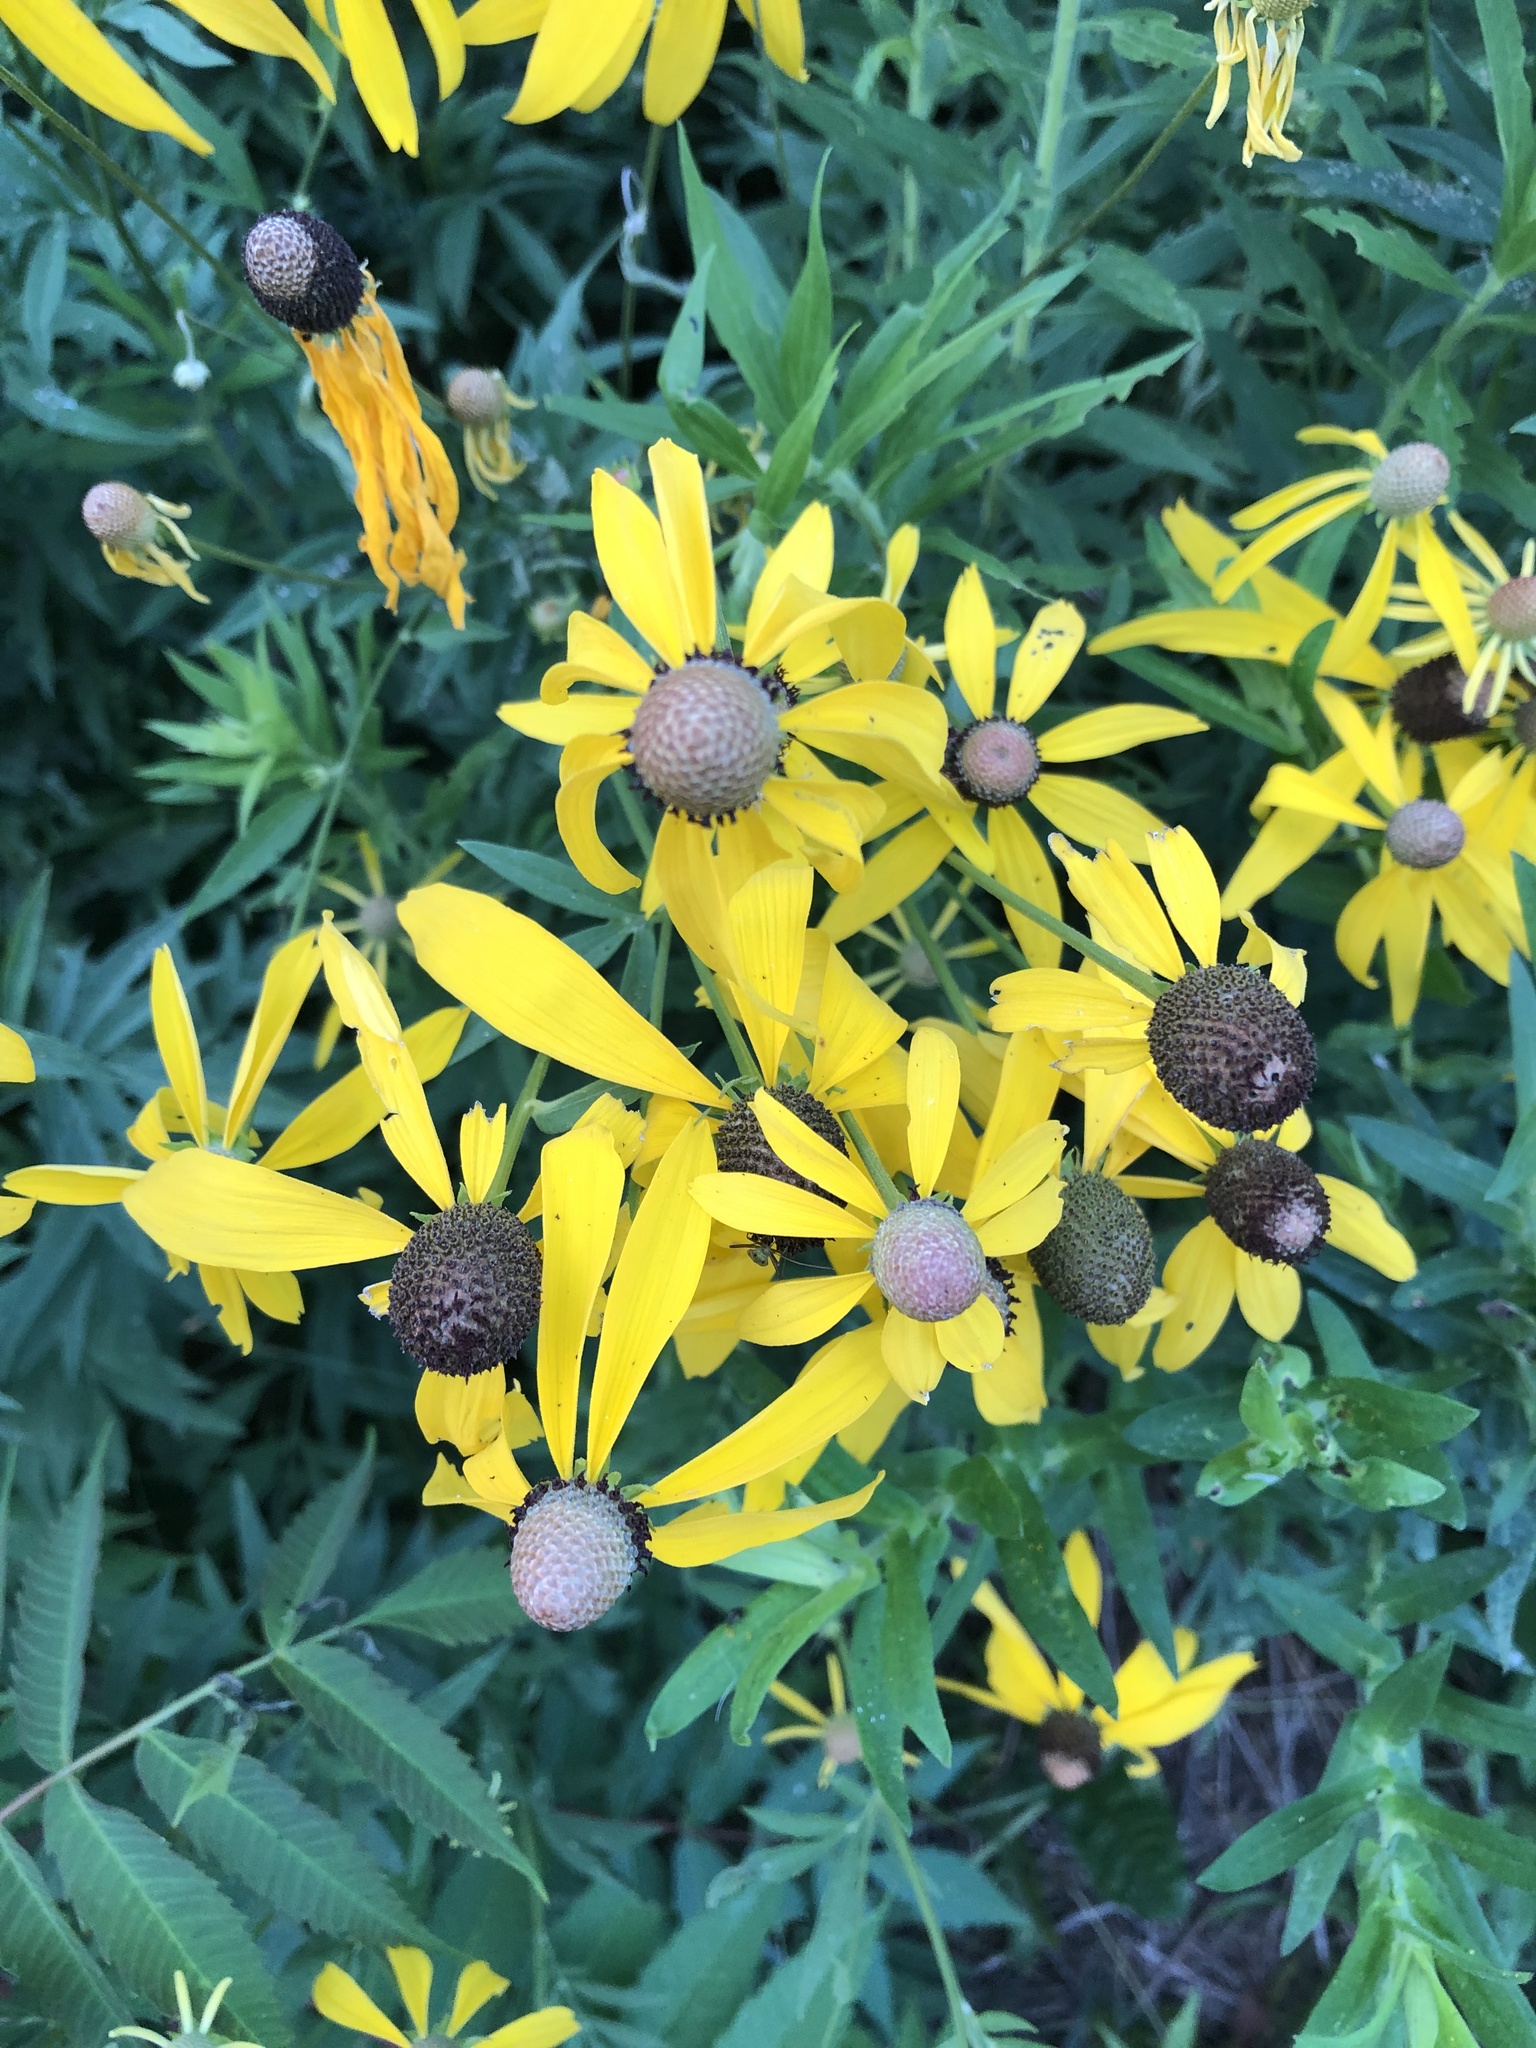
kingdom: Plantae
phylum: Tracheophyta
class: Magnoliopsida
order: Asterales
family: Asteraceae
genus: Ratibida
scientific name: Ratibida pinnata
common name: Drooping prairie-coneflower
